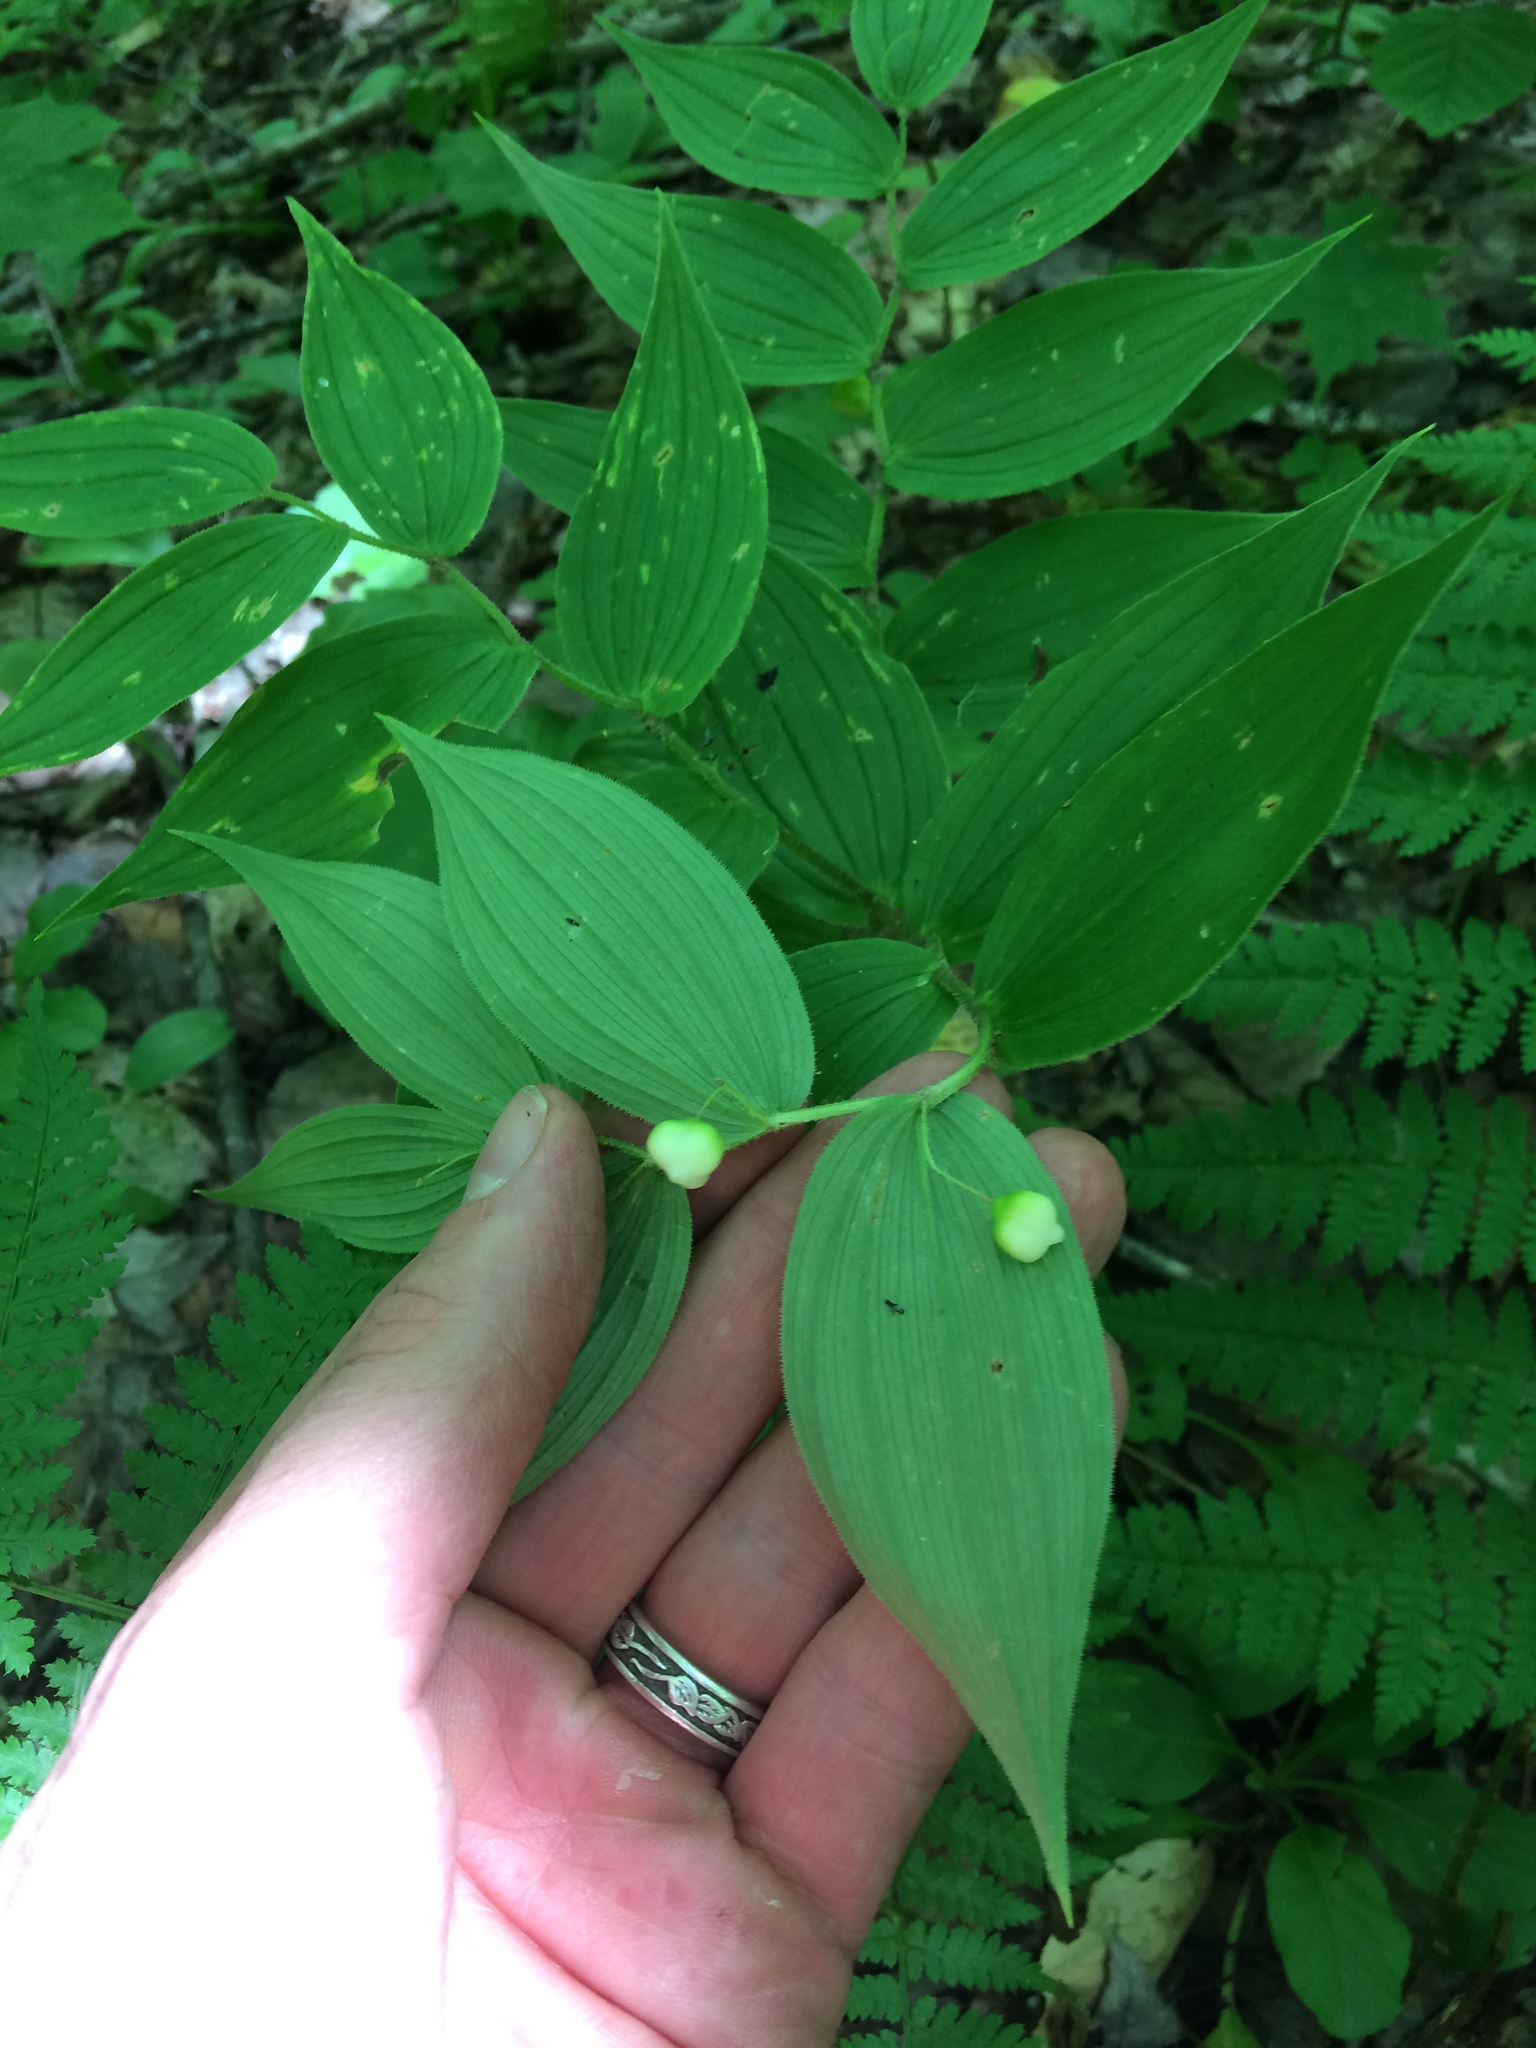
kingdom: Plantae
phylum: Tracheophyta
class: Liliopsida
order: Liliales
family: Liliaceae
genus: Streptopus
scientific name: Streptopus lanceolatus
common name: Rose mandarin
